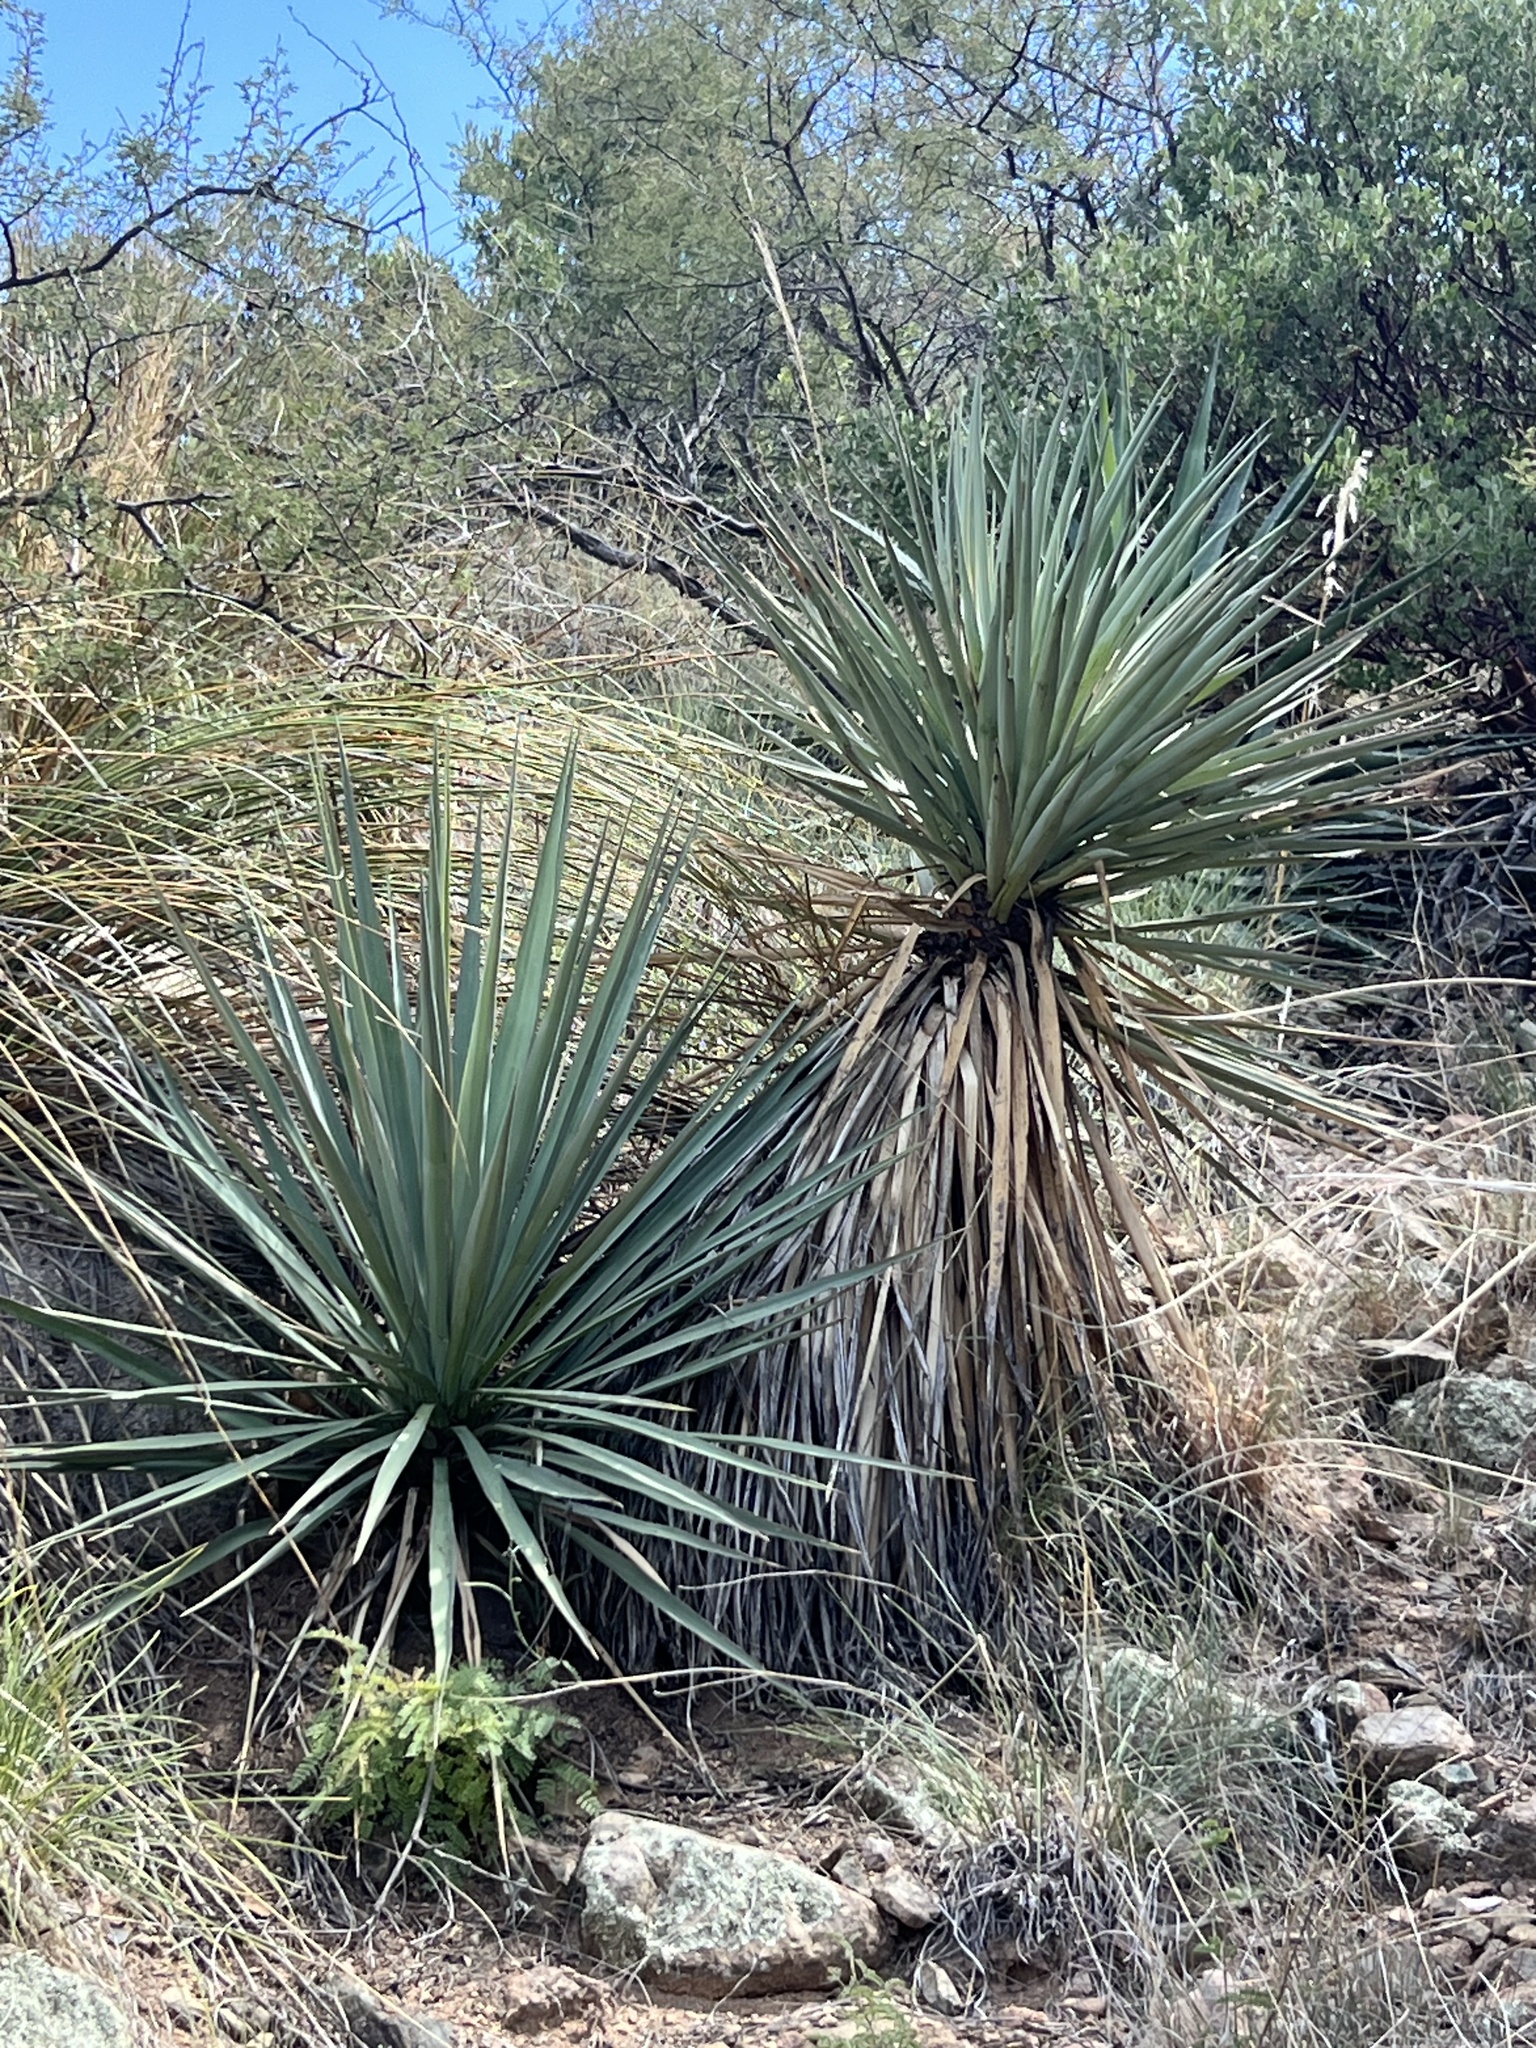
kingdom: Plantae
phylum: Tracheophyta
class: Liliopsida
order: Asparagales
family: Asparagaceae
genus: Yucca
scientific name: Yucca schottii
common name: Hoary yucca
